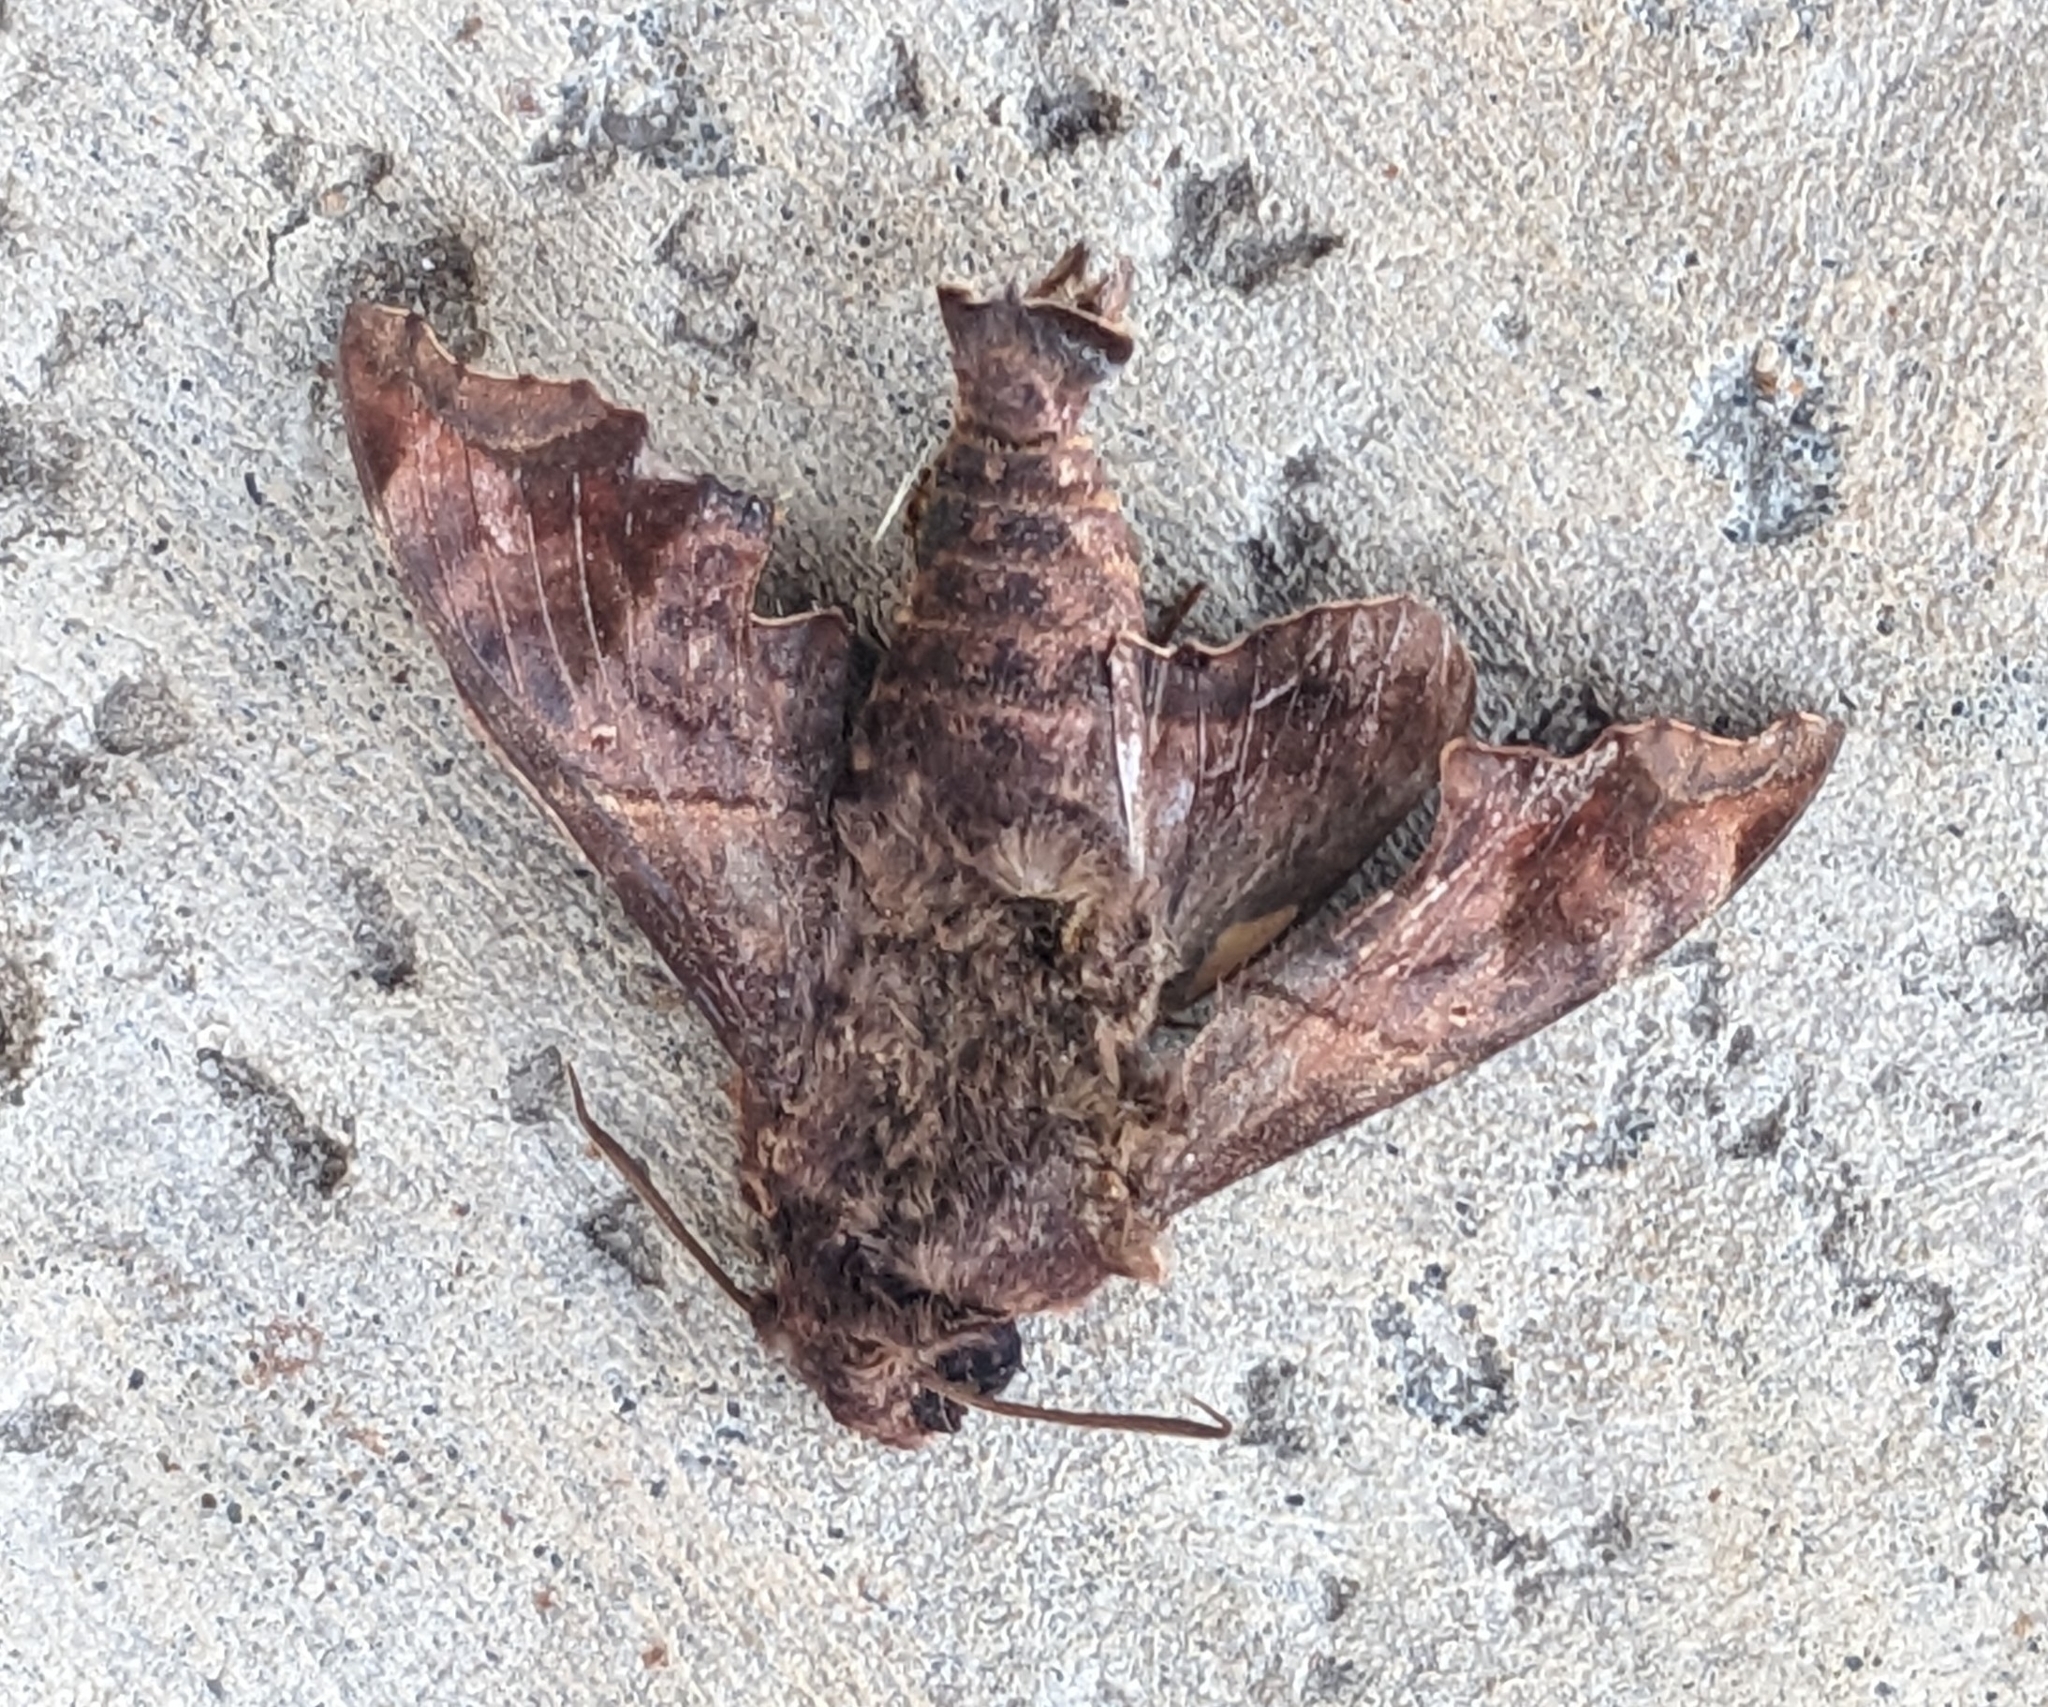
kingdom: Animalia
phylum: Arthropoda
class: Insecta
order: Lepidoptera
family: Sphingidae
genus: Enyo
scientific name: Enyo lugubris
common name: Mournful sphinx
